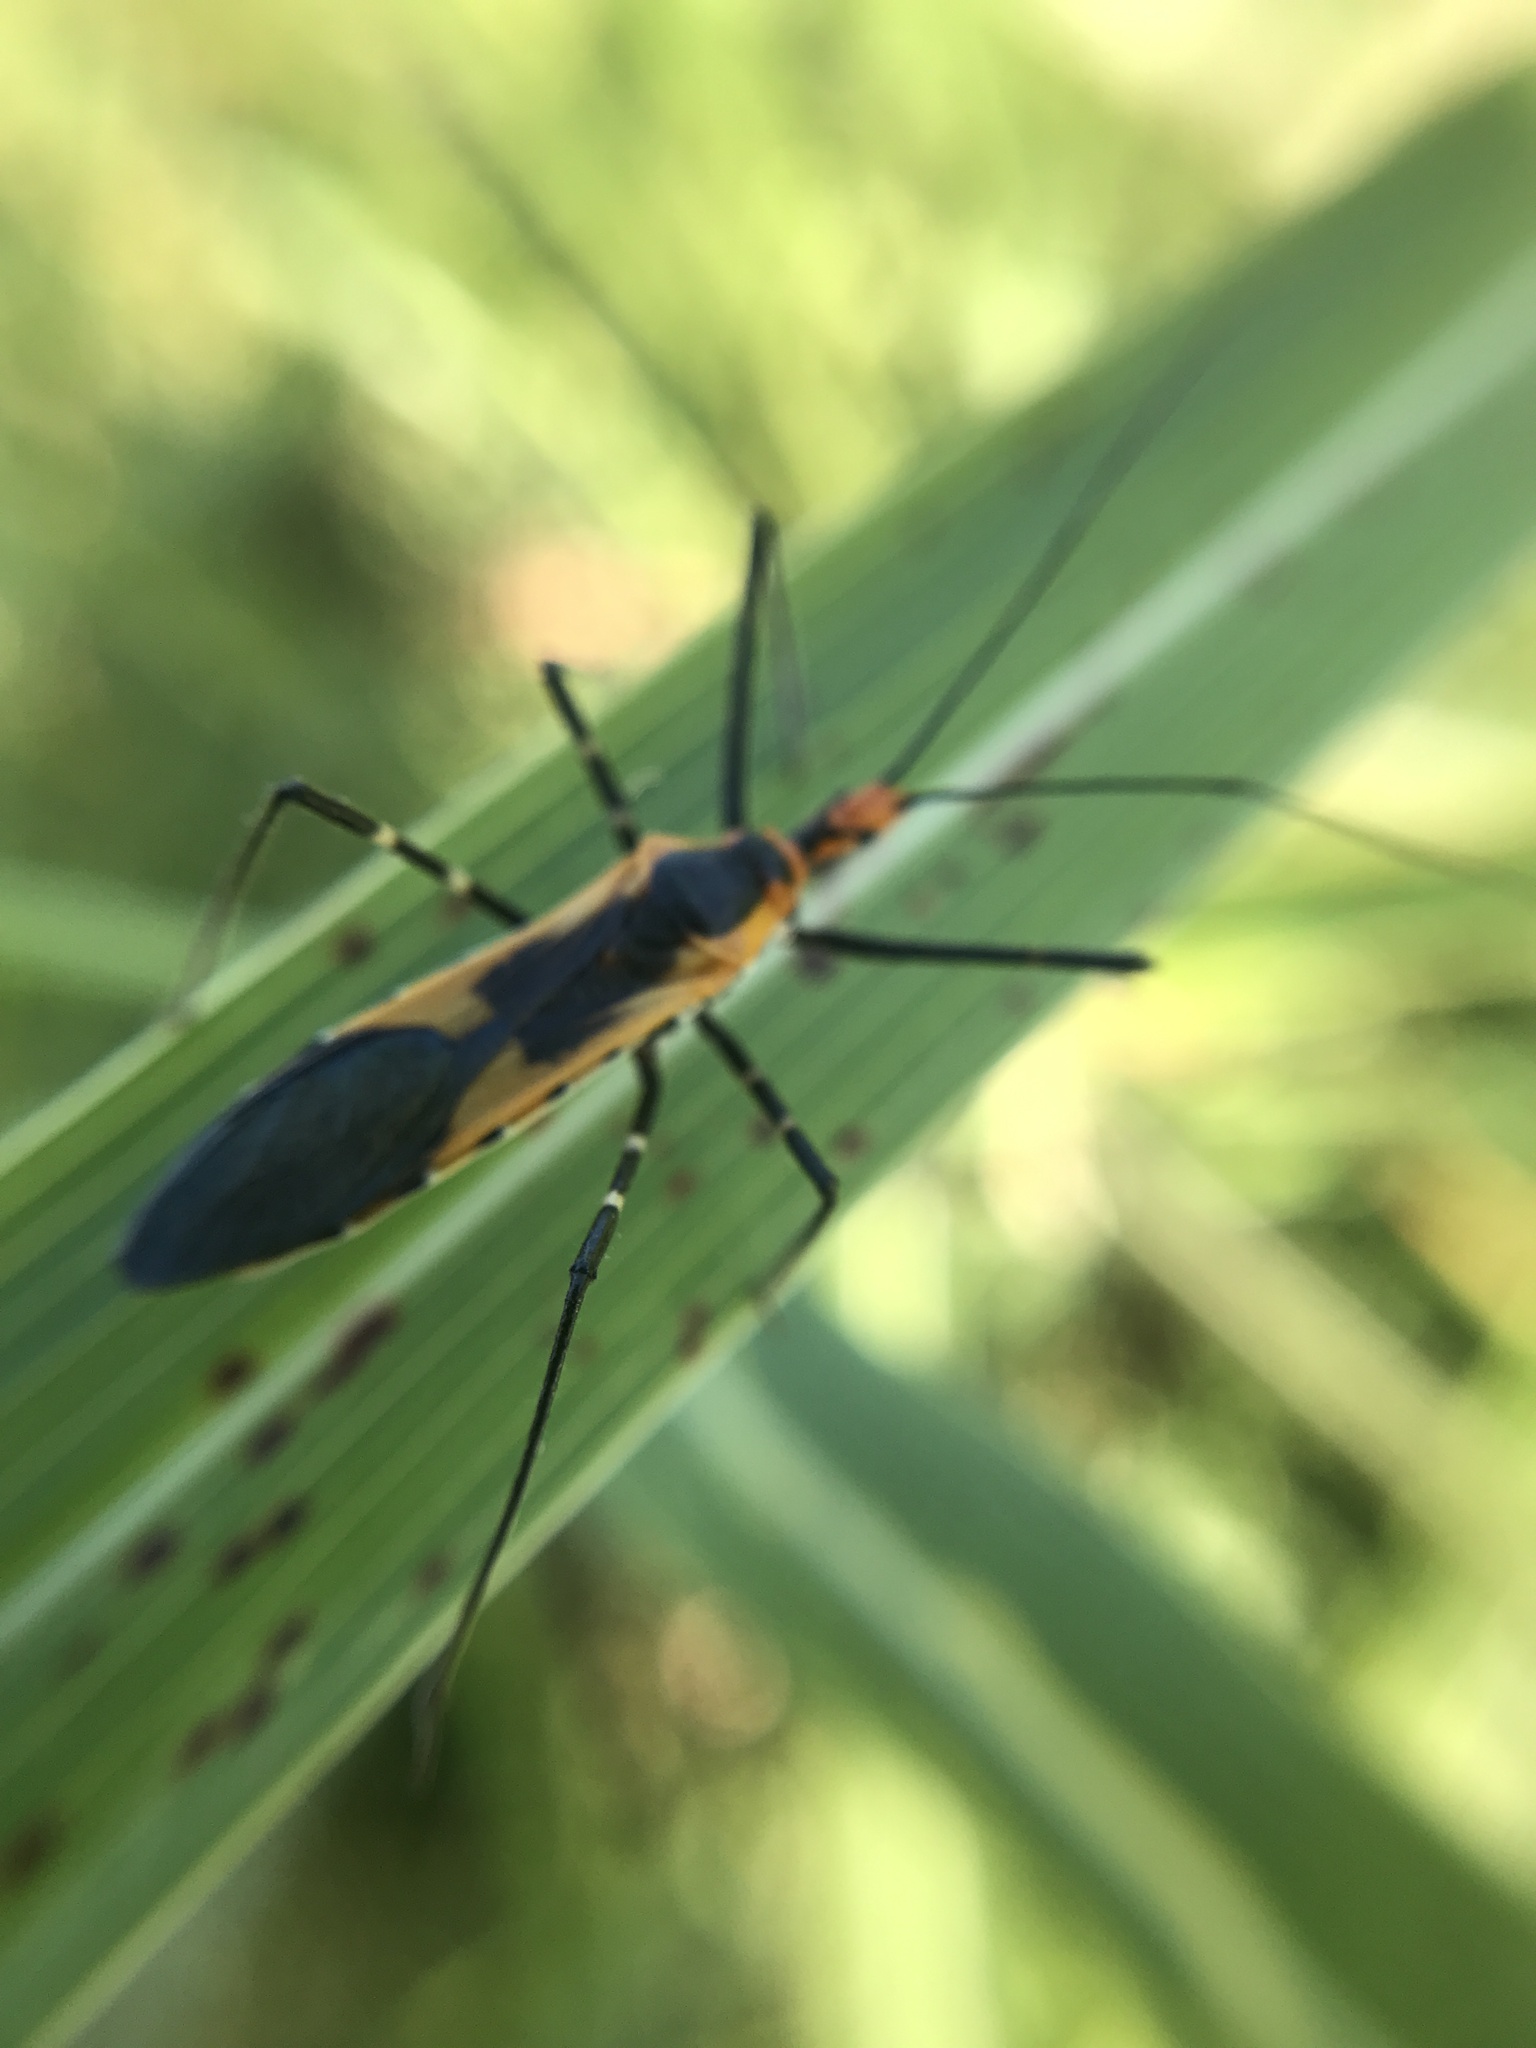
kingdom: Animalia
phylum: Arthropoda
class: Insecta
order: Hemiptera
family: Reduviidae
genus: Zelus
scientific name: Zelus longipes
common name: Milkweed assassin bug
